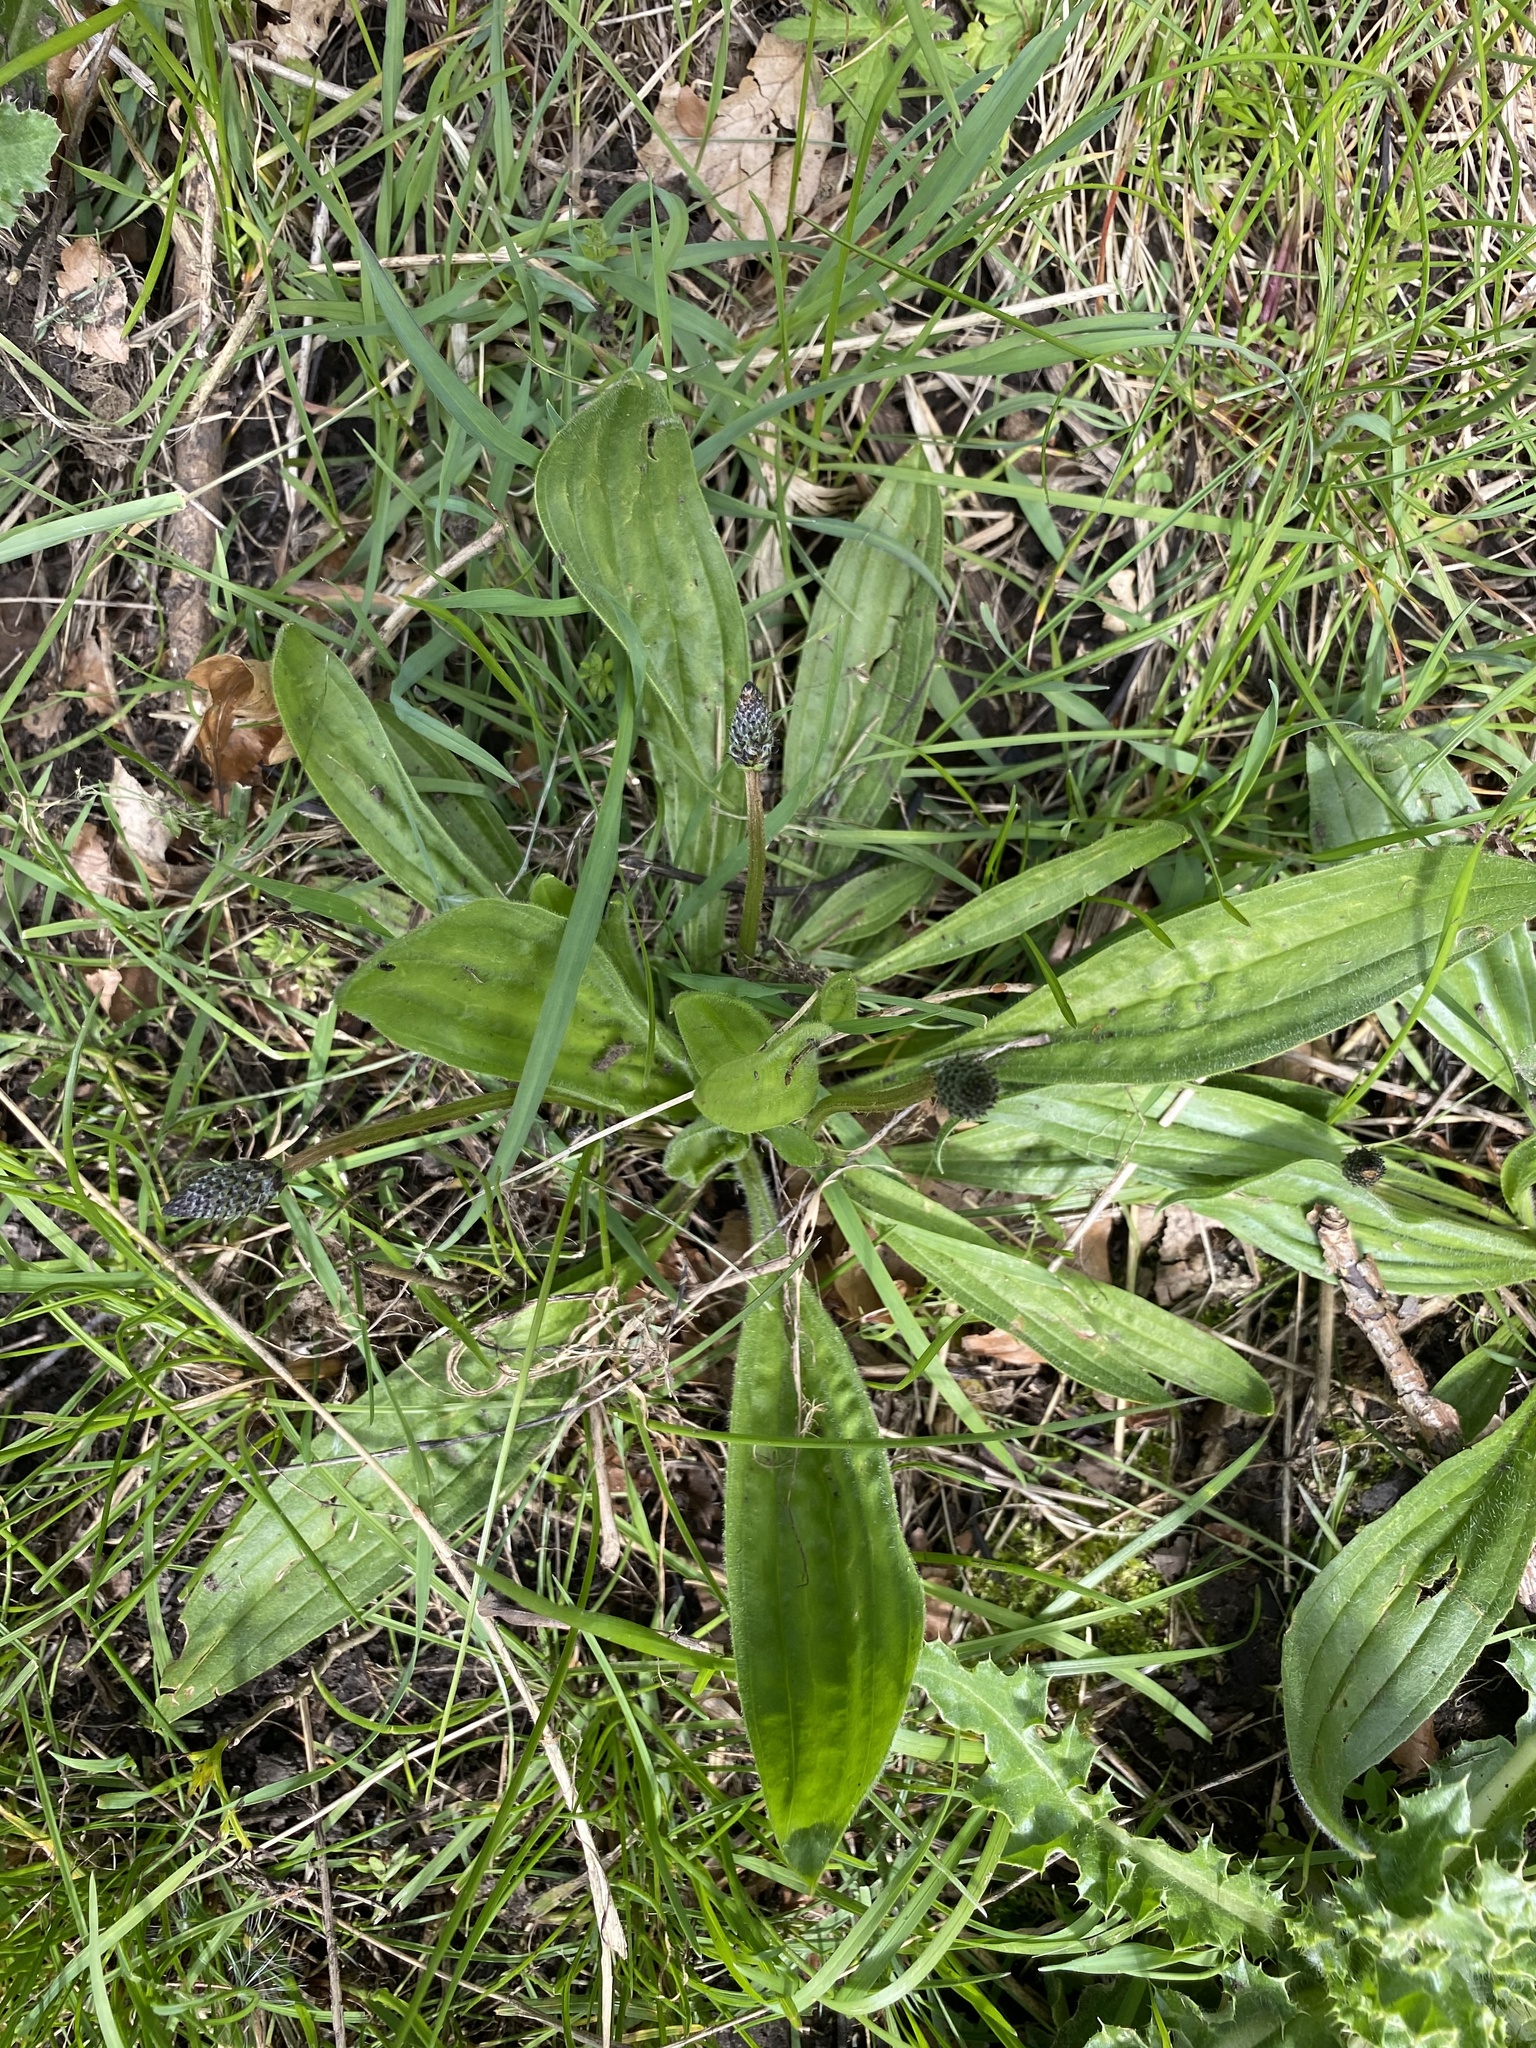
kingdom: Plantae
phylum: Tracheophyta
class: Magnoliopsida
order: Lamiales
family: Plantaginaceae
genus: Plantago
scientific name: Plantago lanceolata
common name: Ribwort plantain
